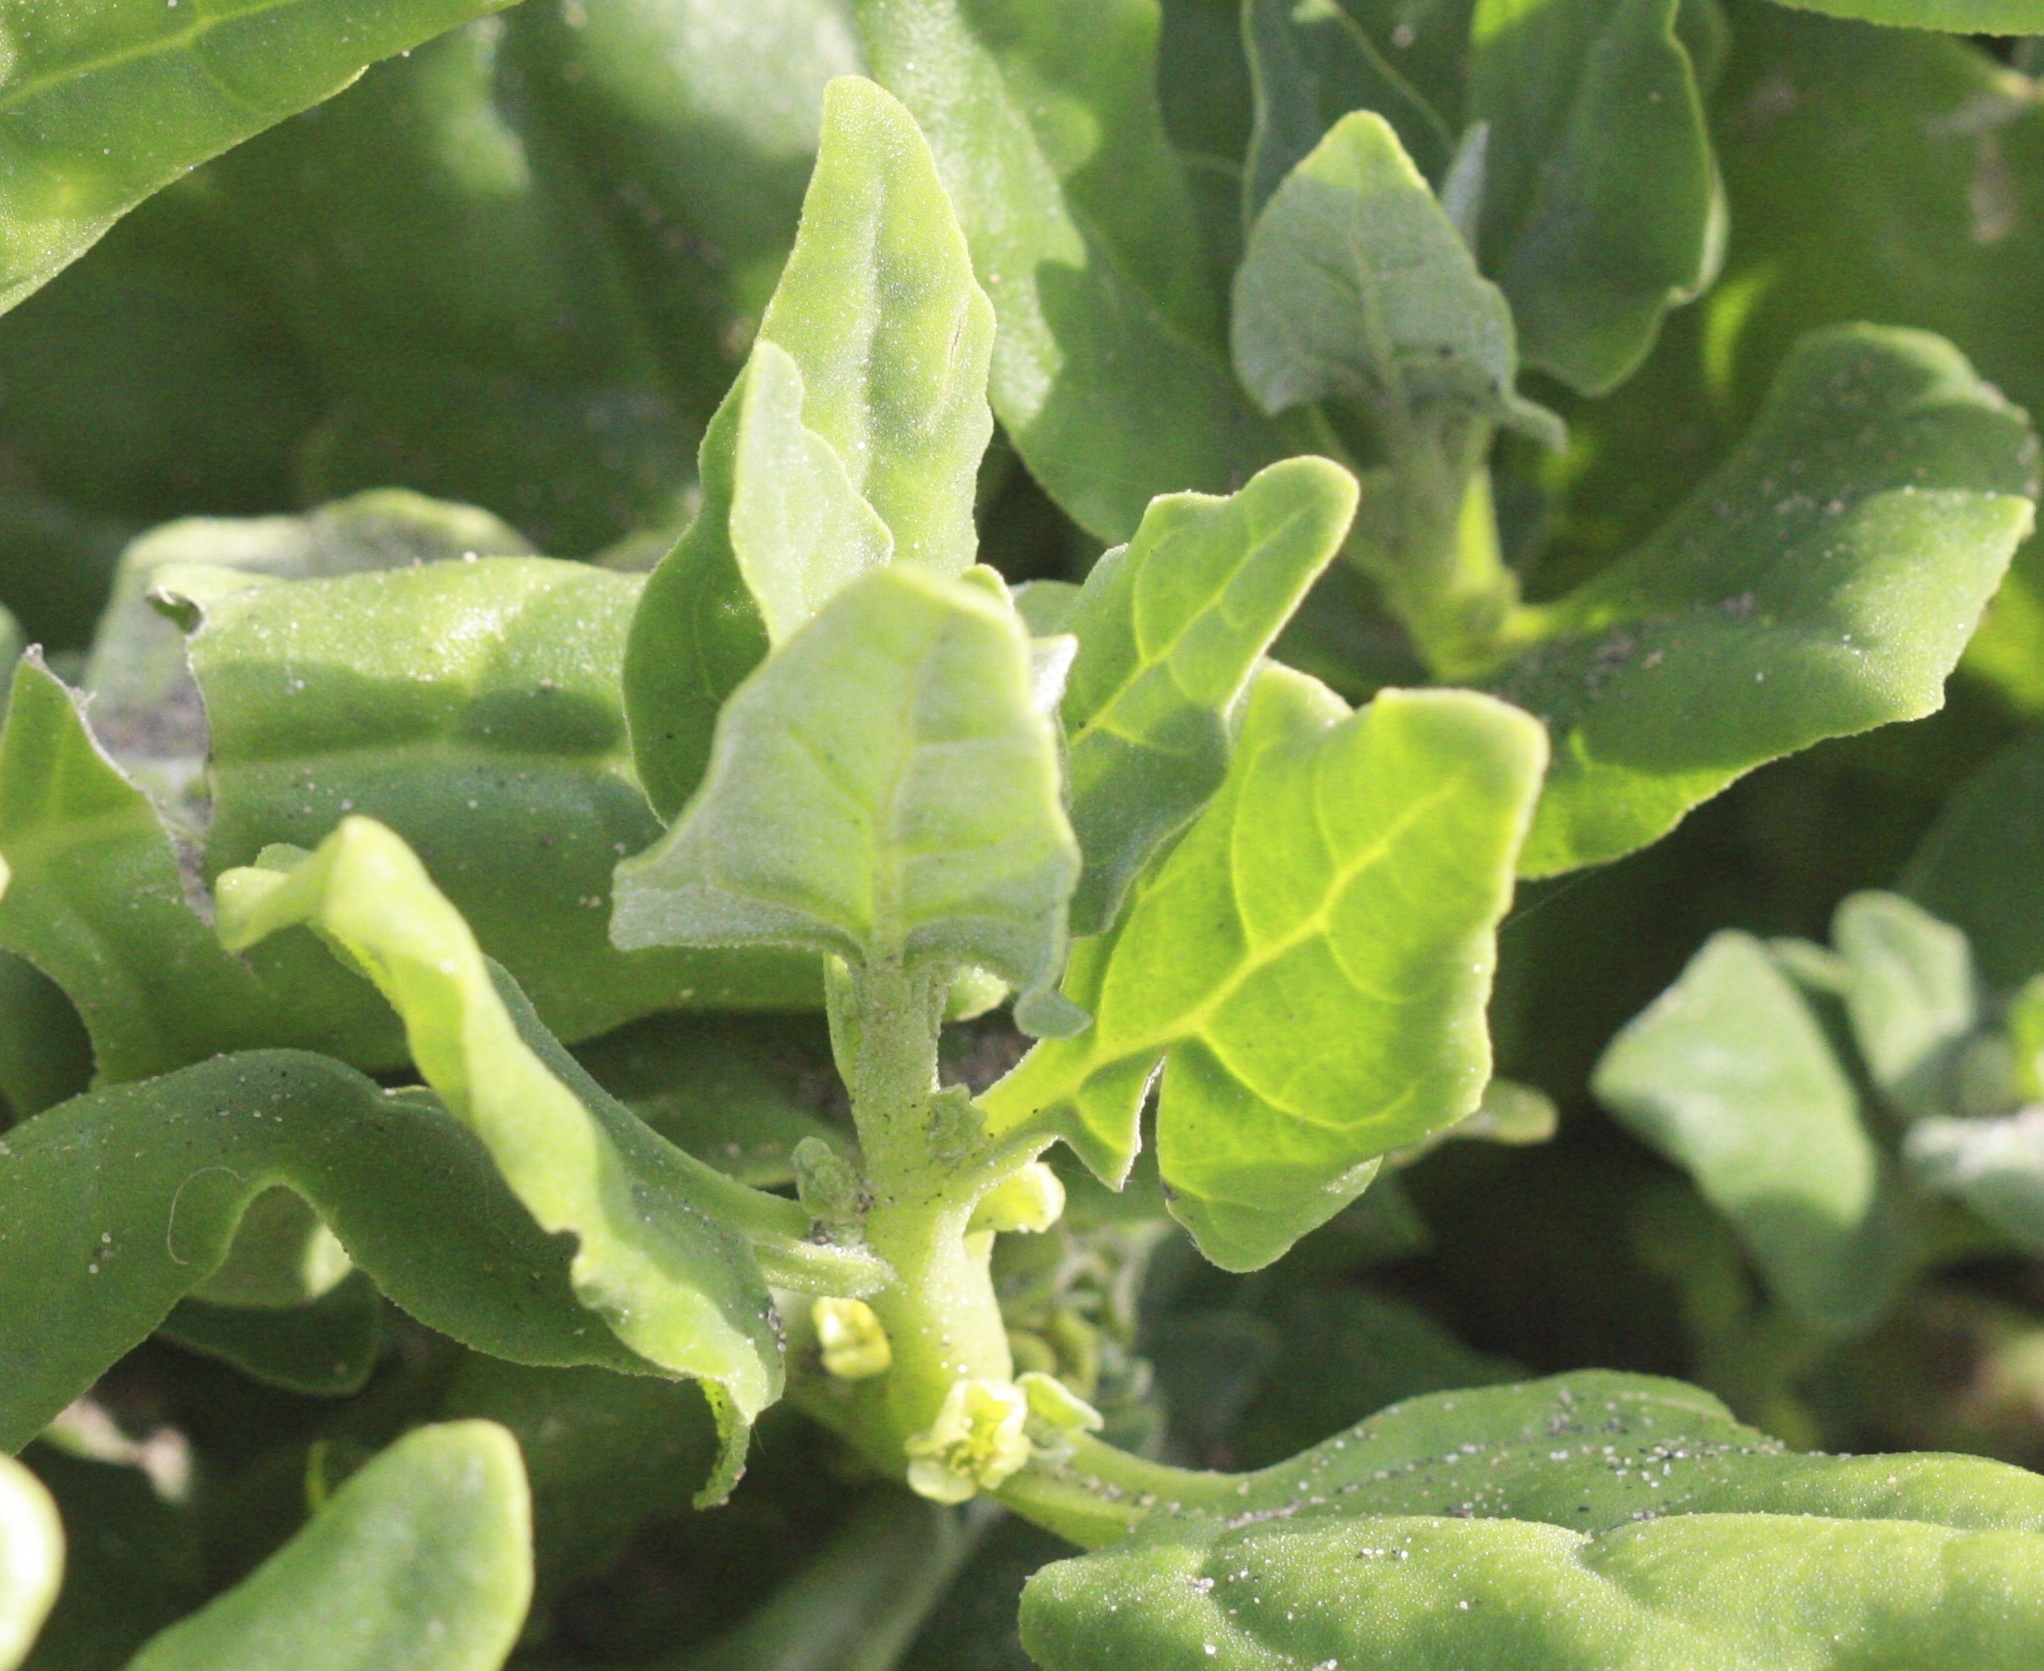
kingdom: Plantae
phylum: Tracheophyta
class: Magnoliopsida
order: Caryophyllales
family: Aizoaceae
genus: Tetragonia
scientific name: Tetragonia tetragonoides
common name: New zealand-spinach
